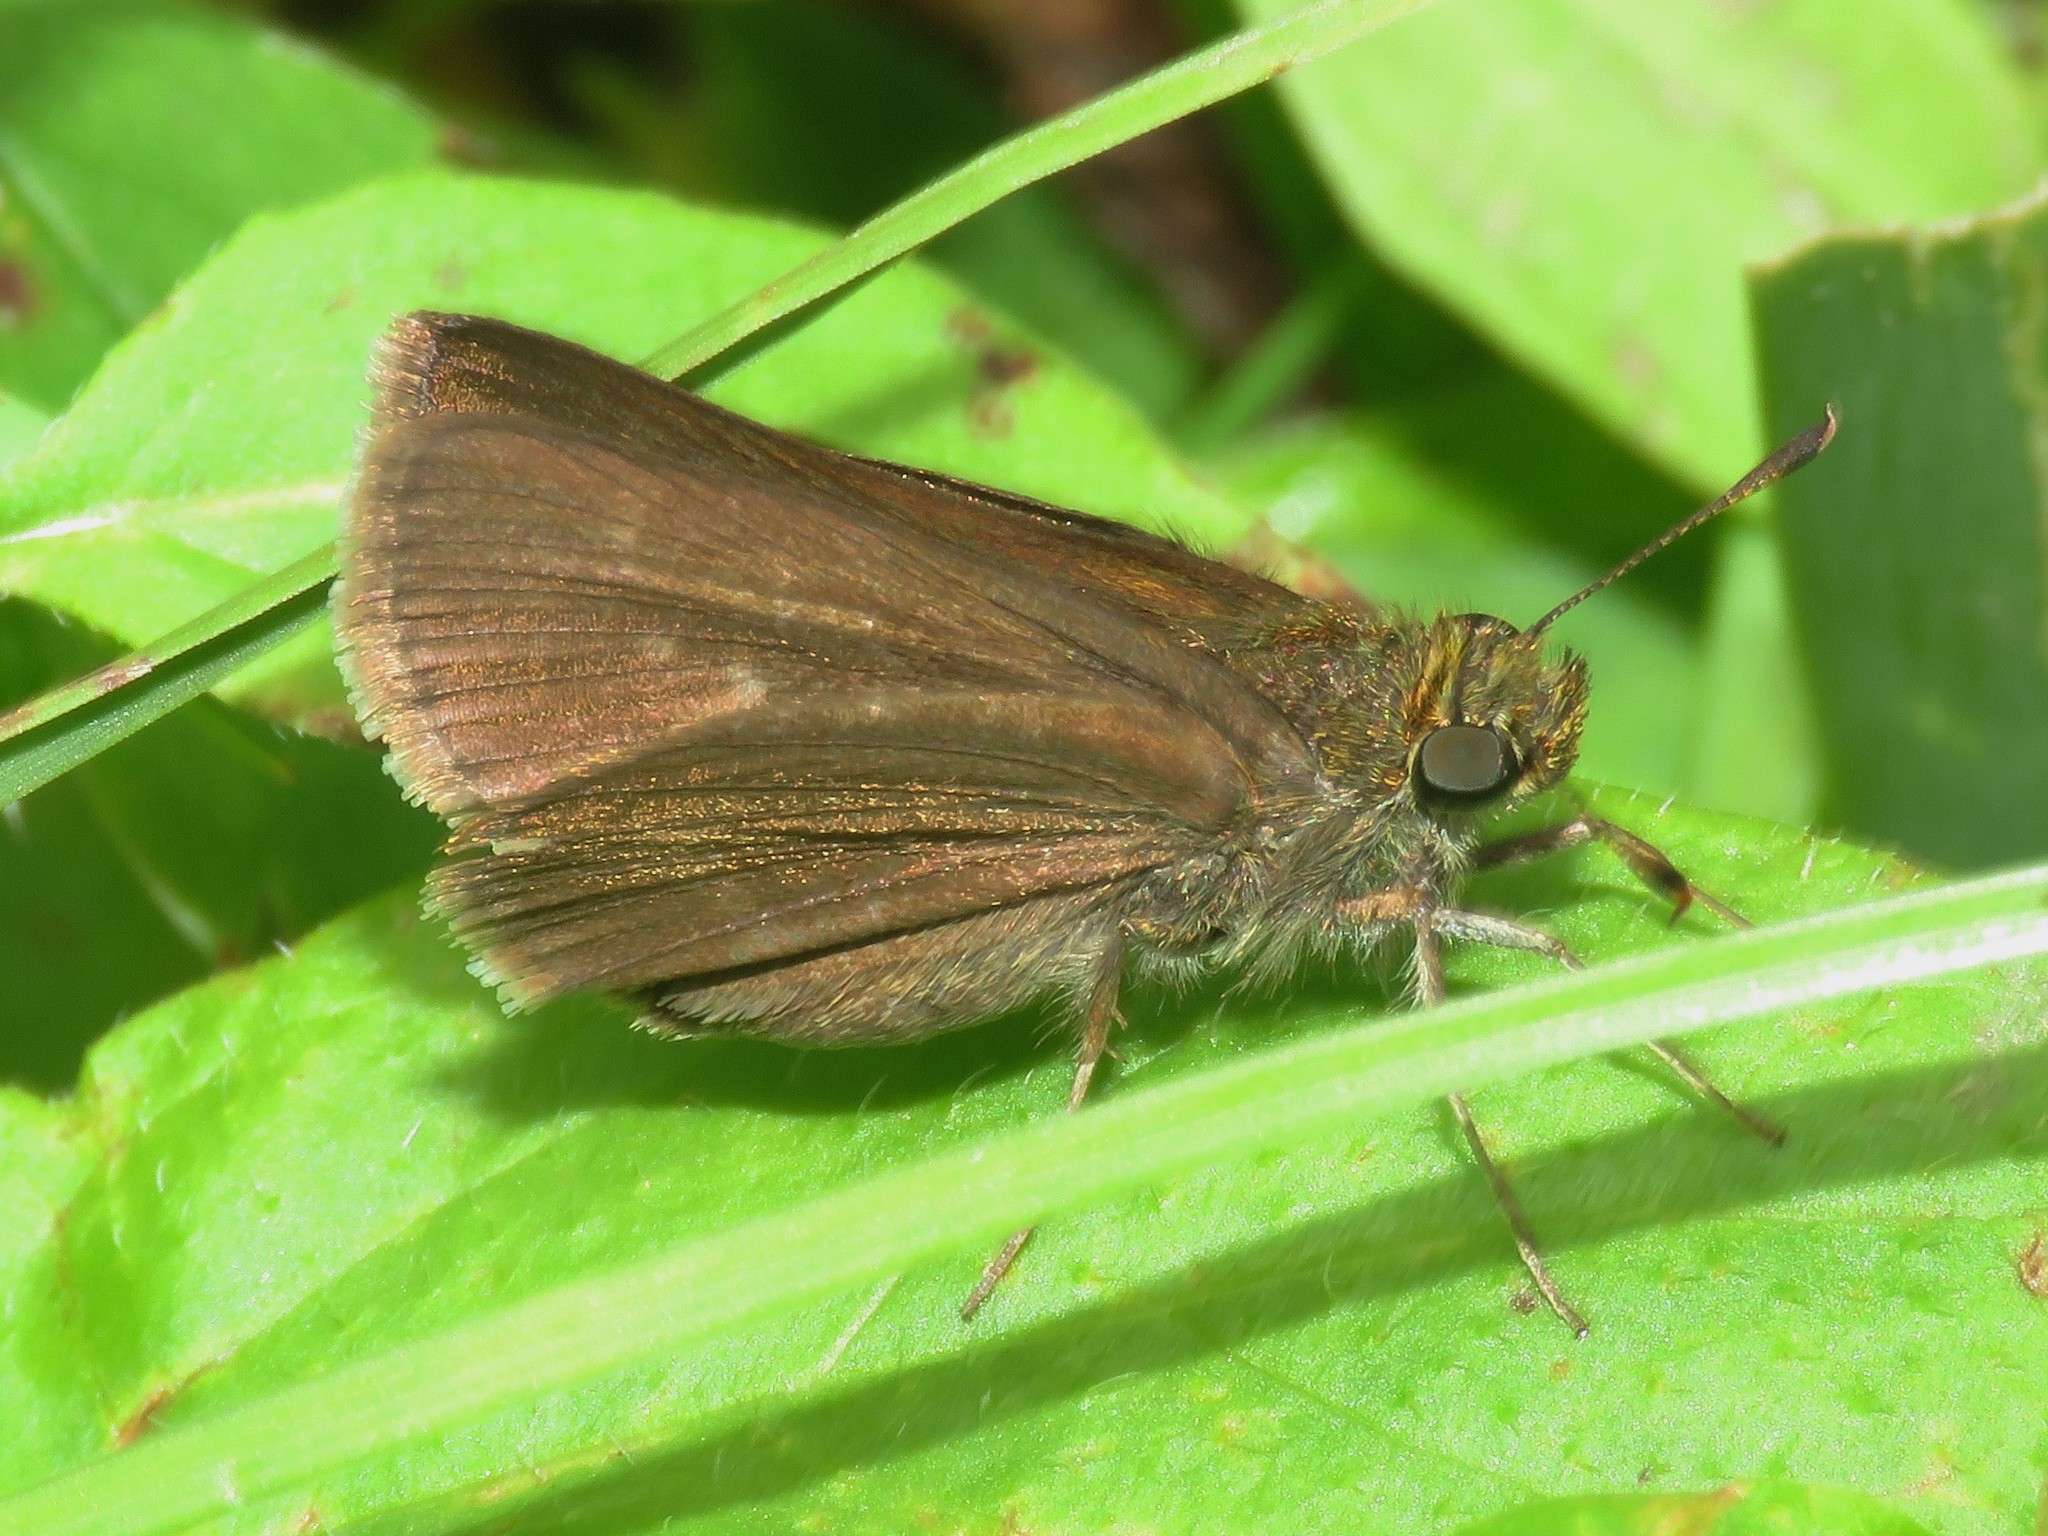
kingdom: Animalia
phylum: Arthropoda
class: Insecta
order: Lepidoptera
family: Hesperiidae
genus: Euphyes
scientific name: Euphyes vestris
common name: Dun skipper
